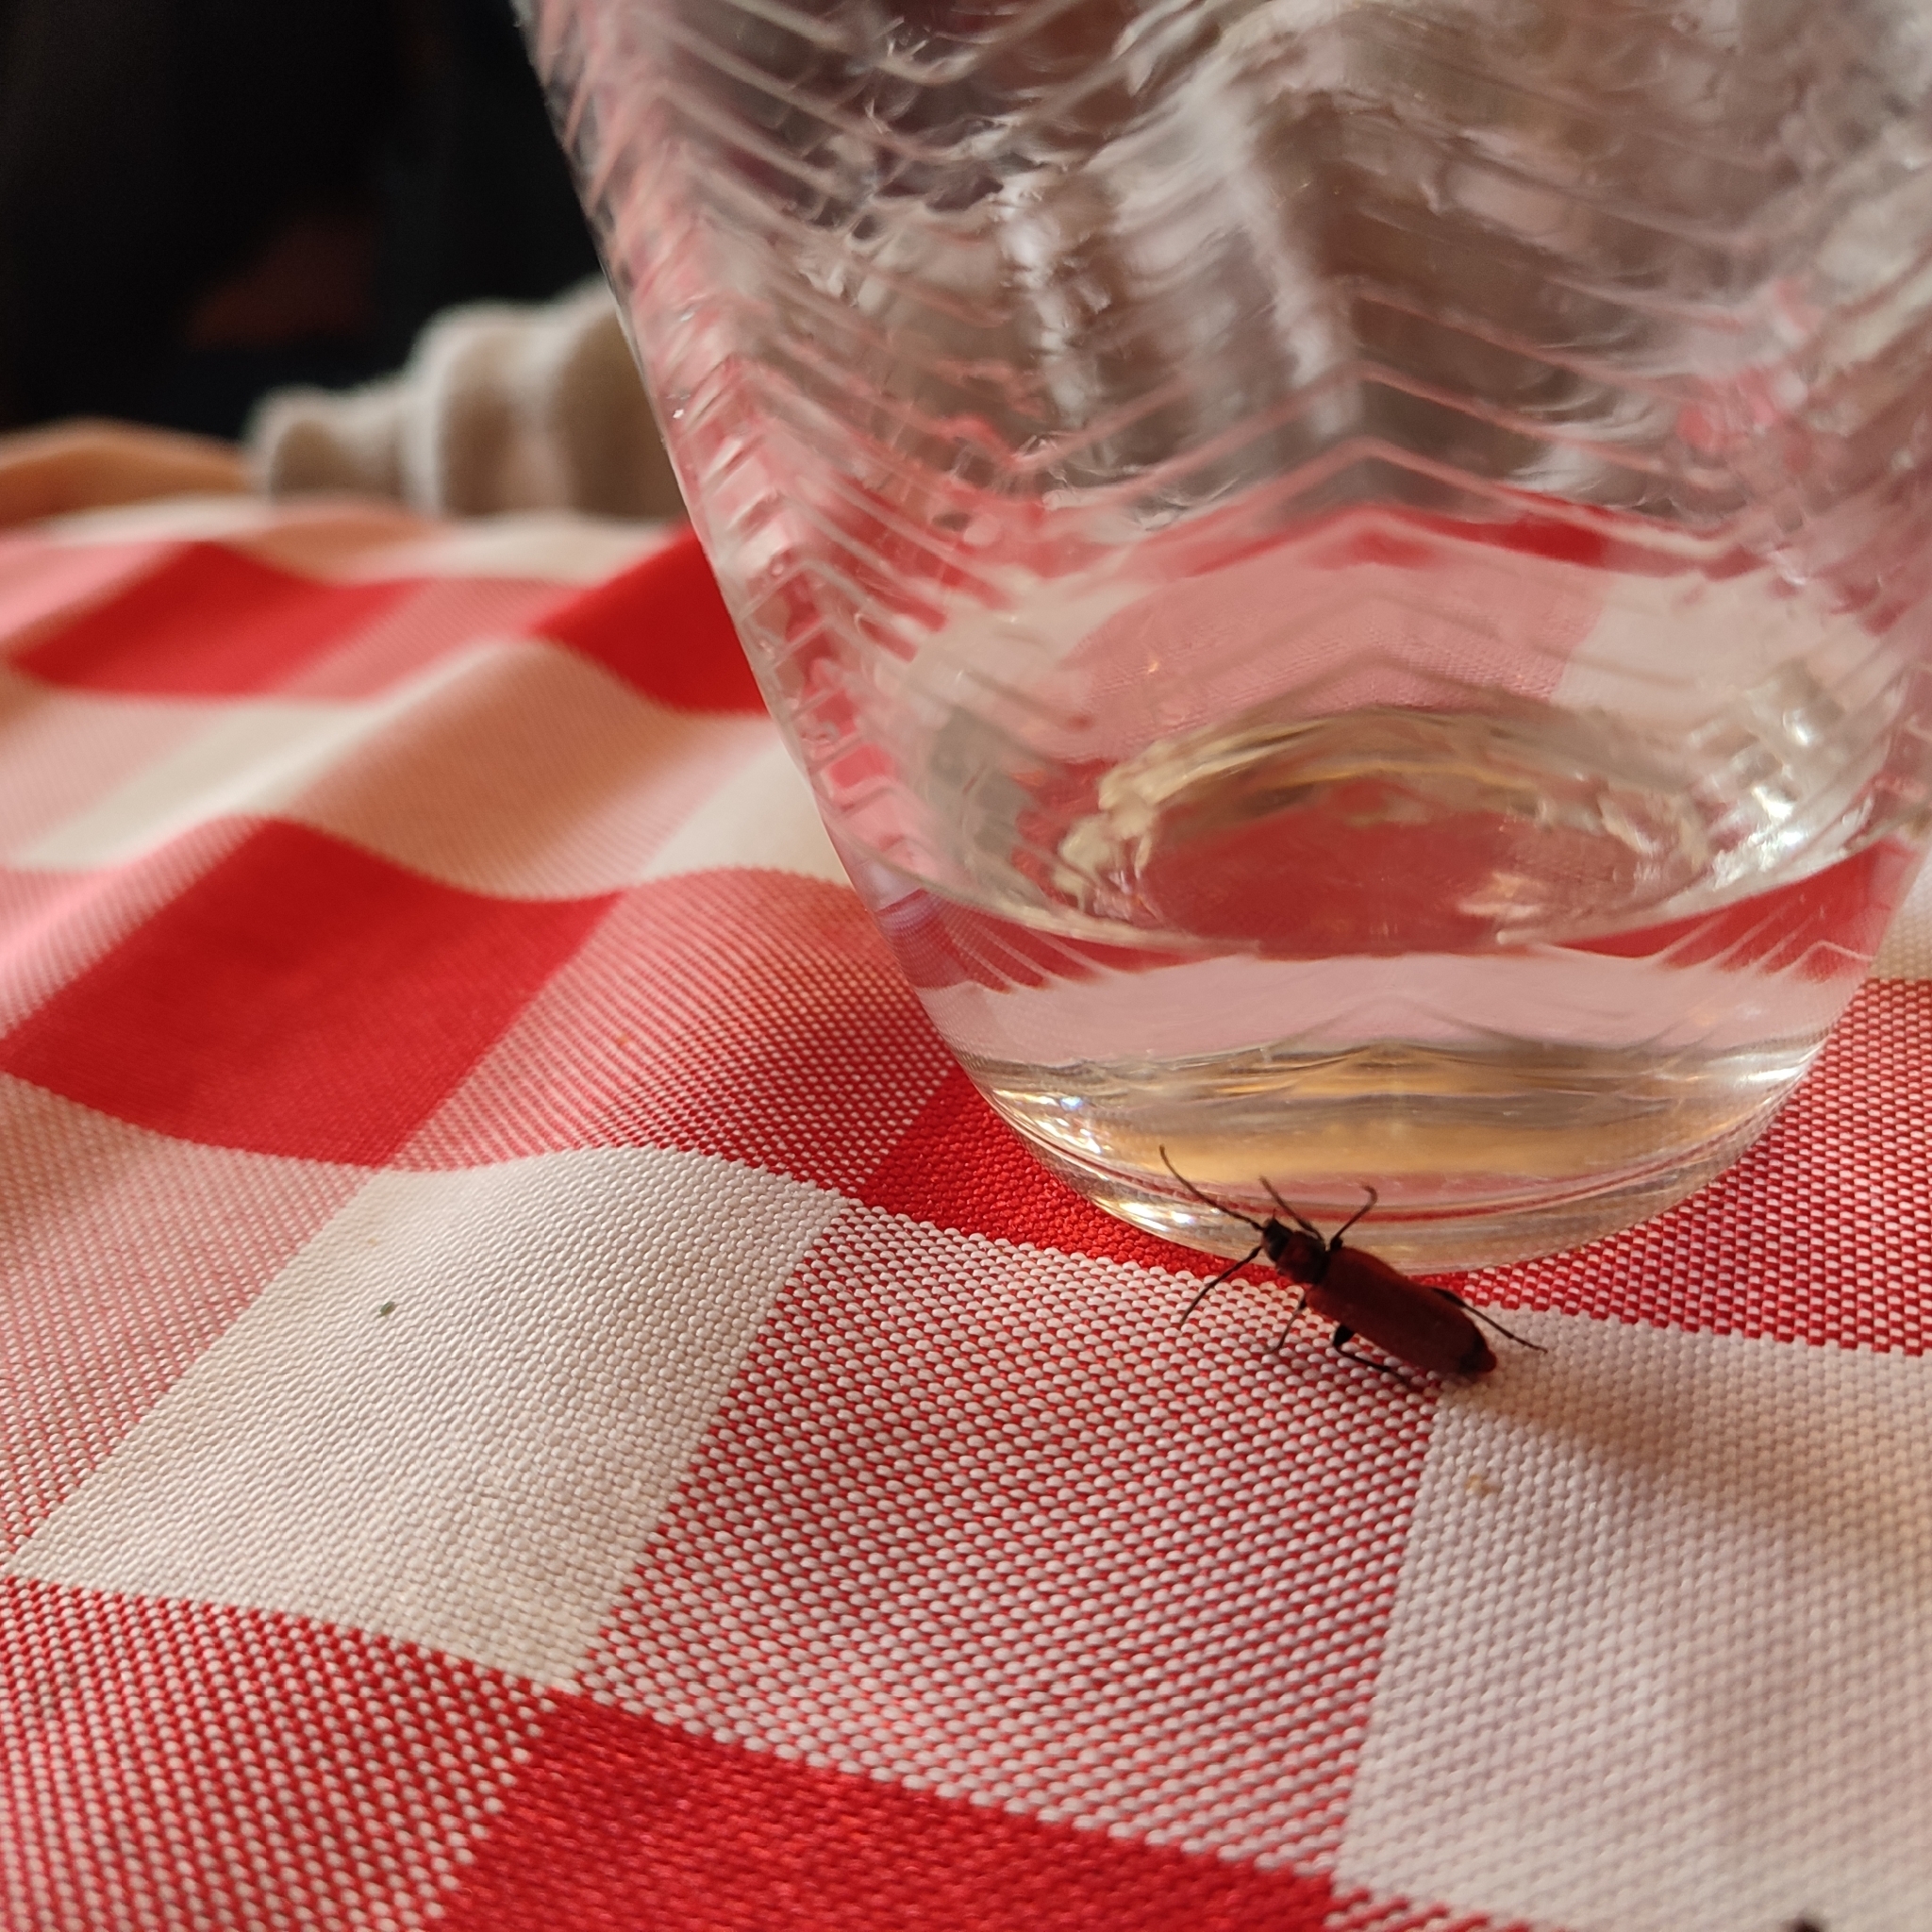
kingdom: Animalia
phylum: Arthropoda
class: Insecta
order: Coleoptera
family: Cerambycidae
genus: Pyrrhidium
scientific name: Pyrrhidium sanguineum
